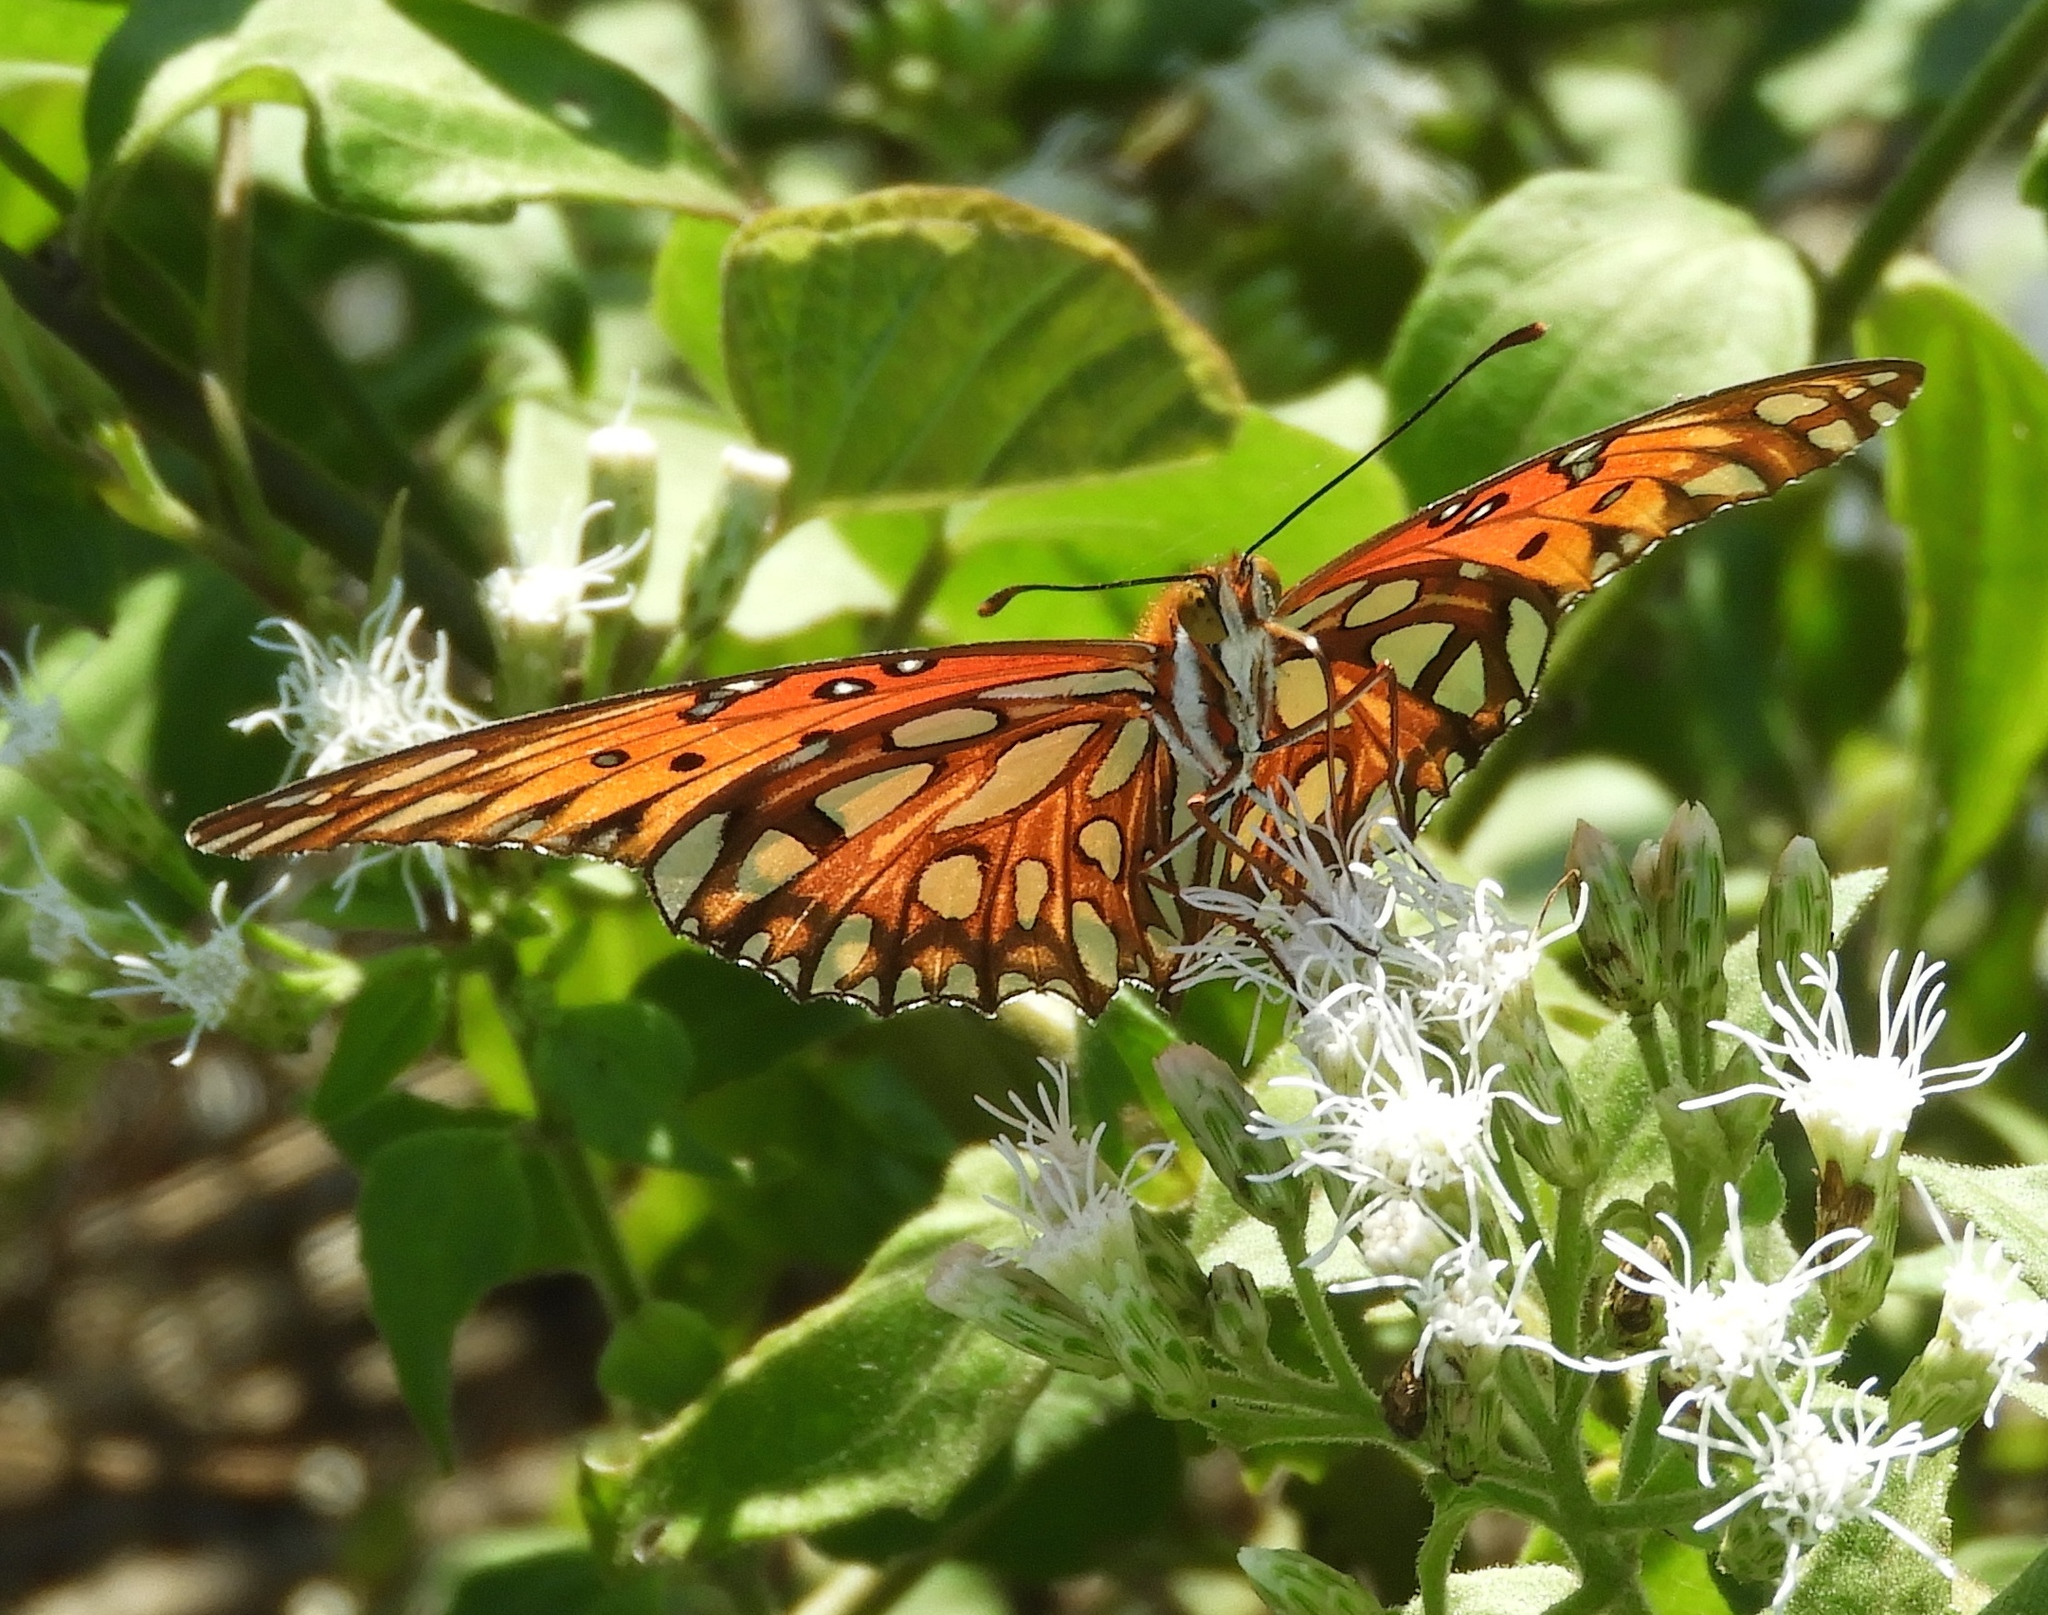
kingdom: Animalia
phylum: Arthropoda
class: Insecta
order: Lepidoptera
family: Nymphalidae
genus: Dione
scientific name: Dione vanillae
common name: Gulf fritillary
